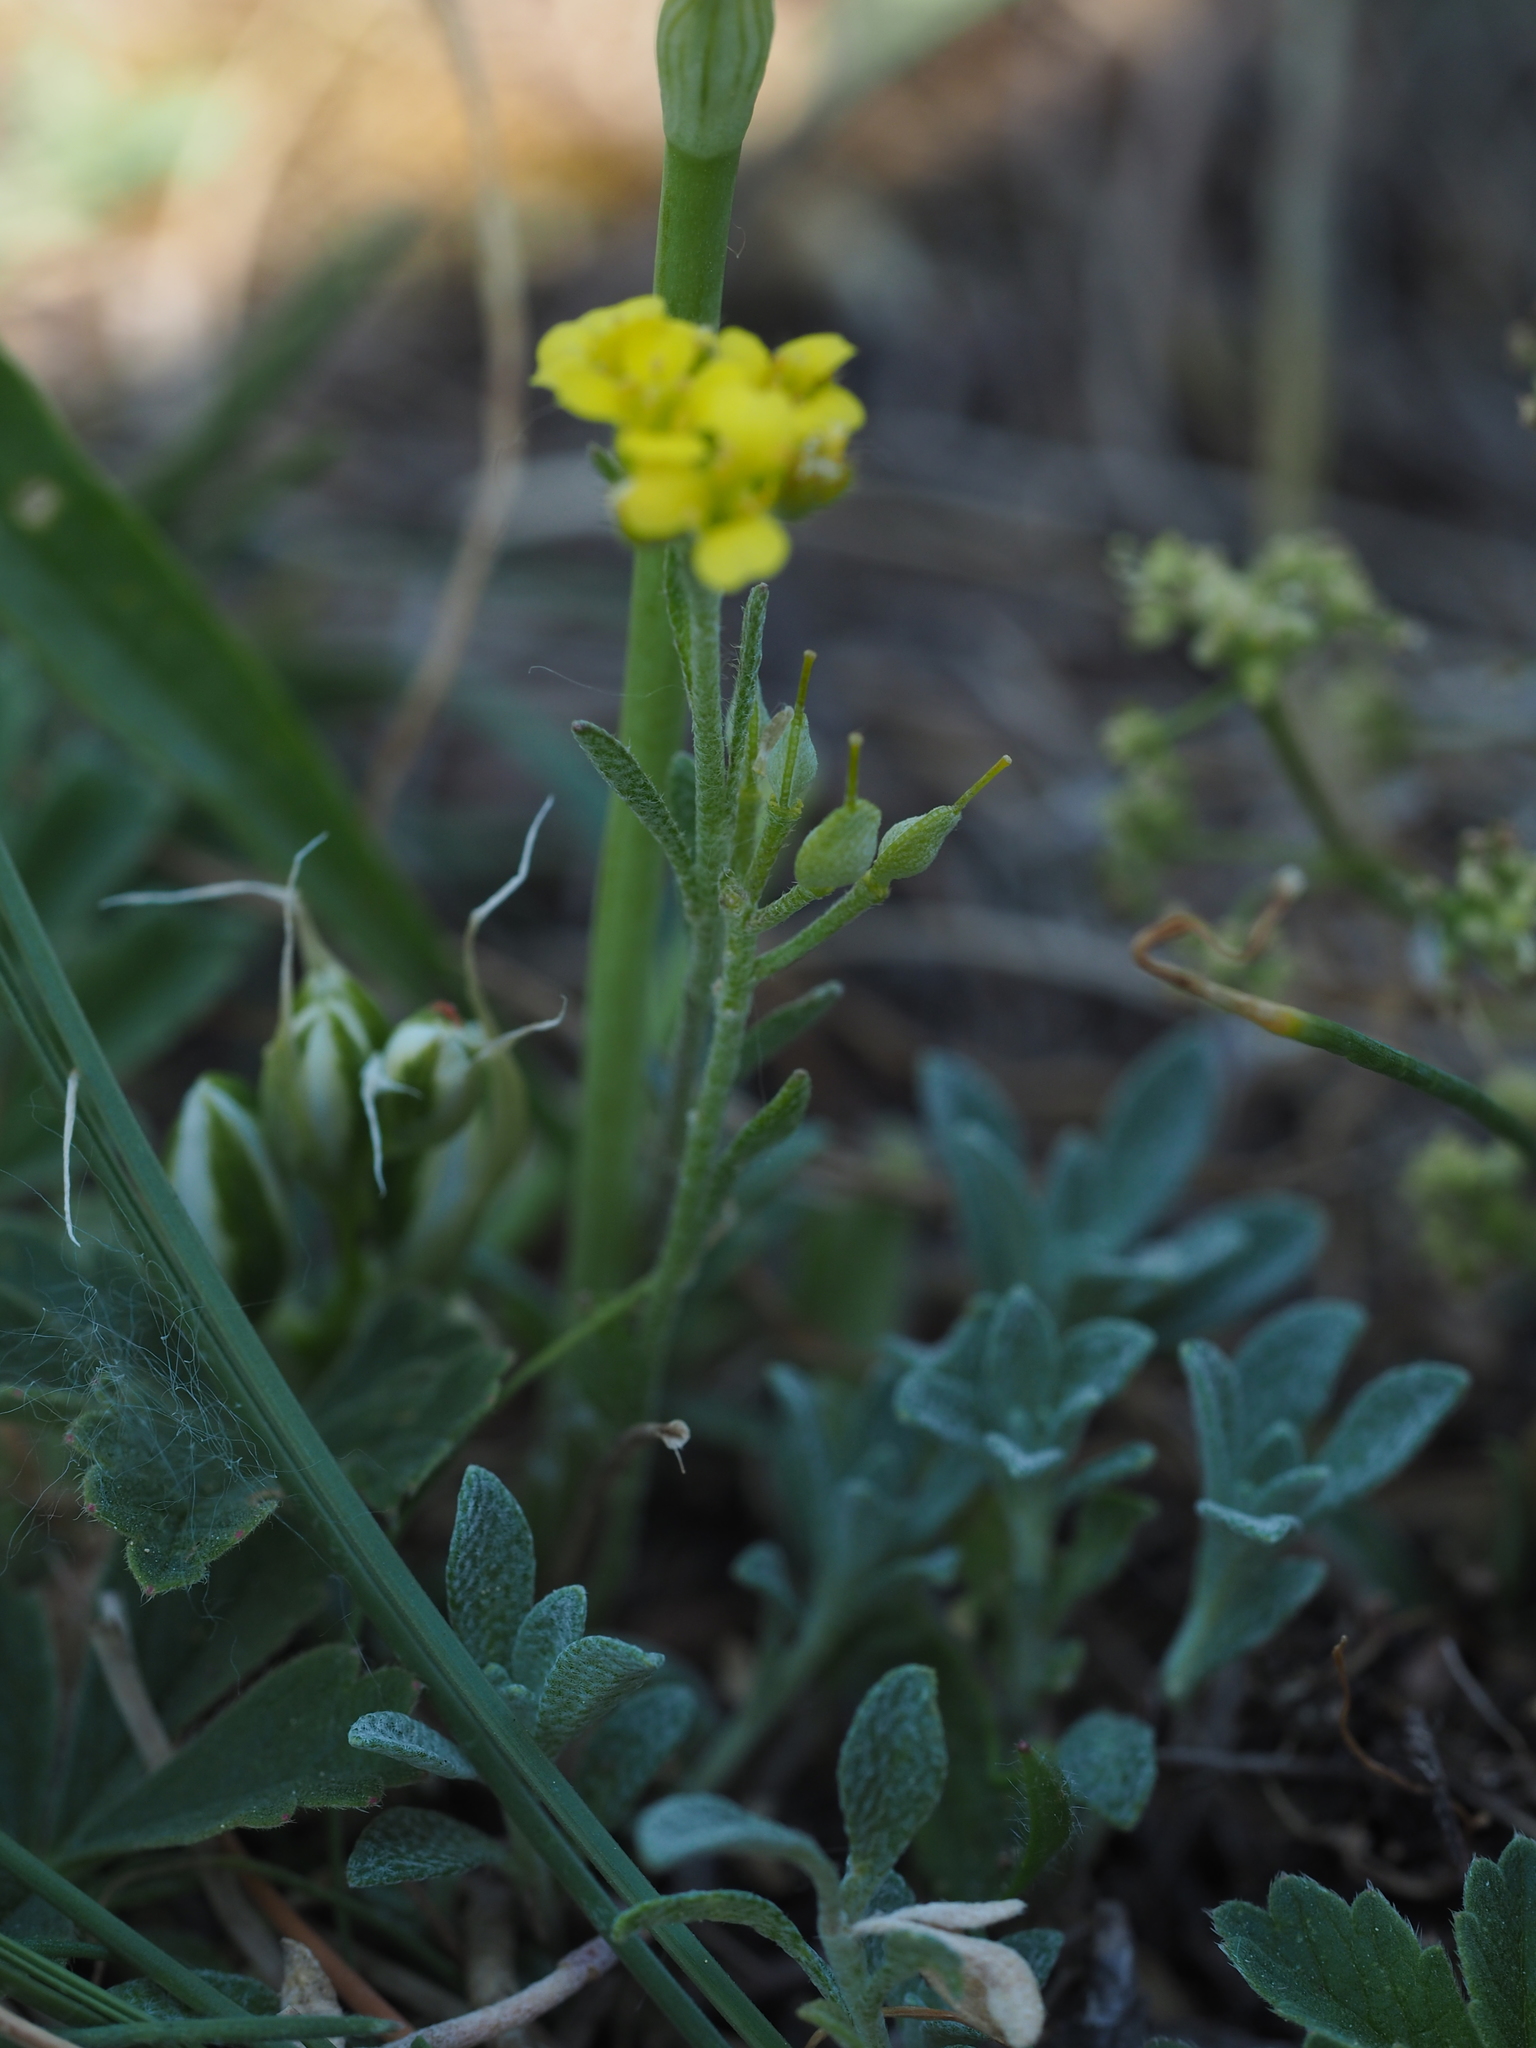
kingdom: Plantae
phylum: Tracheophyta
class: Magnoliopsida
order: Brassicales
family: Brassicaceae
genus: Alyssum
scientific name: Alyssum gmelinii
